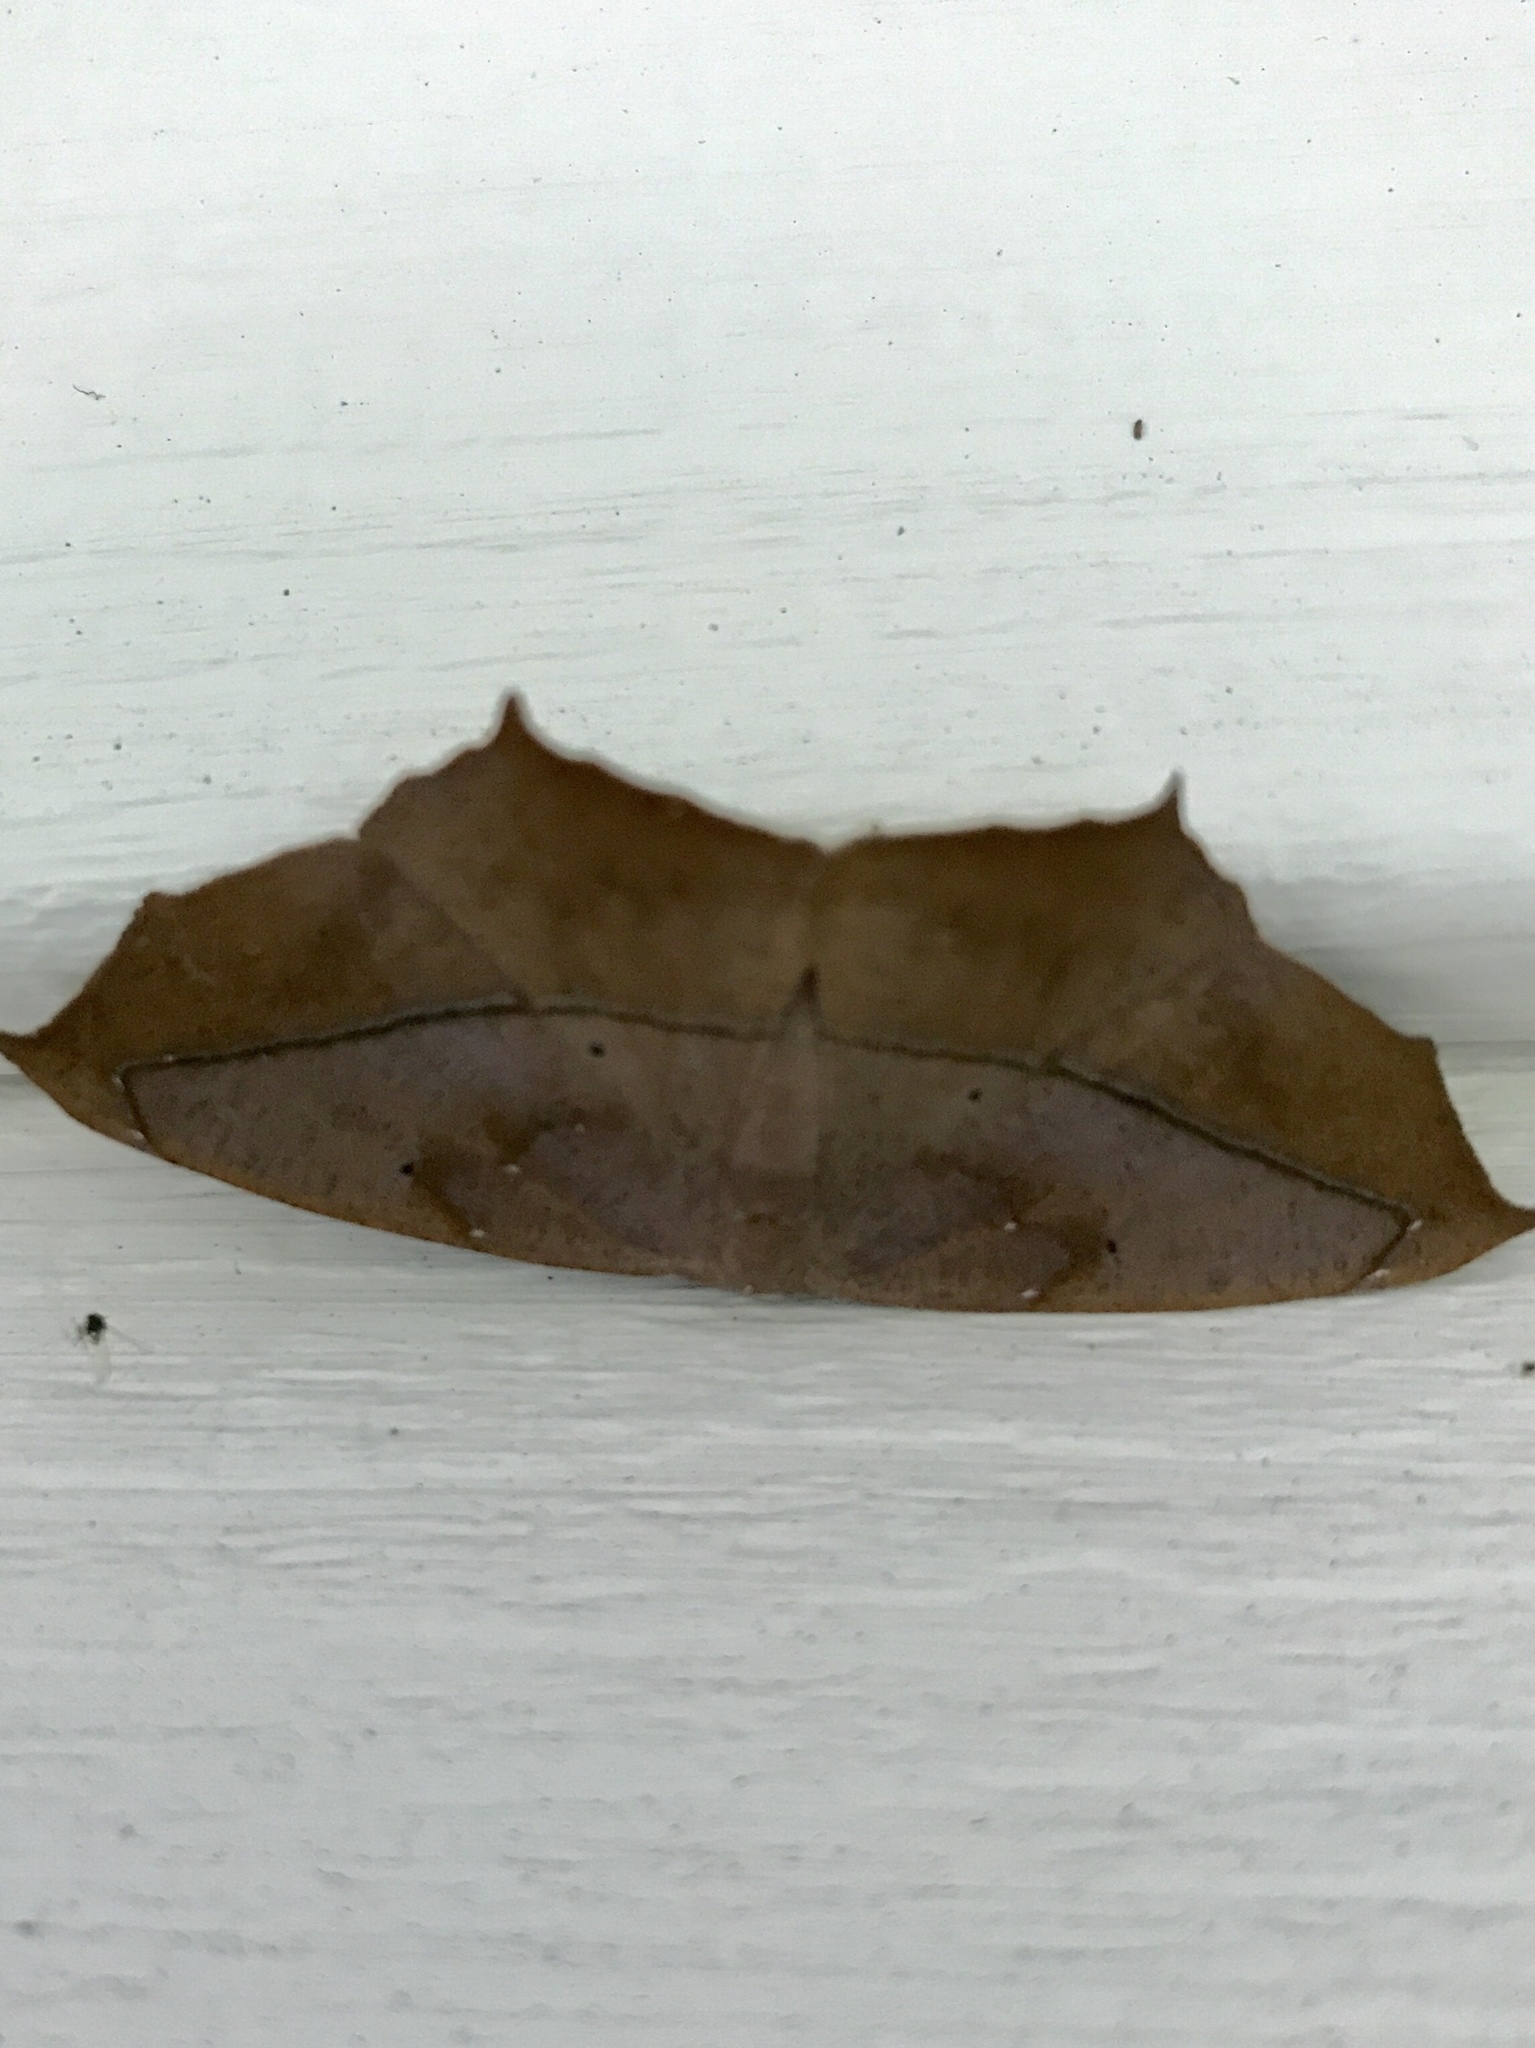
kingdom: Animalia
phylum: Arthropoda
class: Insecta
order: Lepidoptera
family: Geometridae
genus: Prochoerodes
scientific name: Prochoerodes lineola
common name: Large maple spanworm
